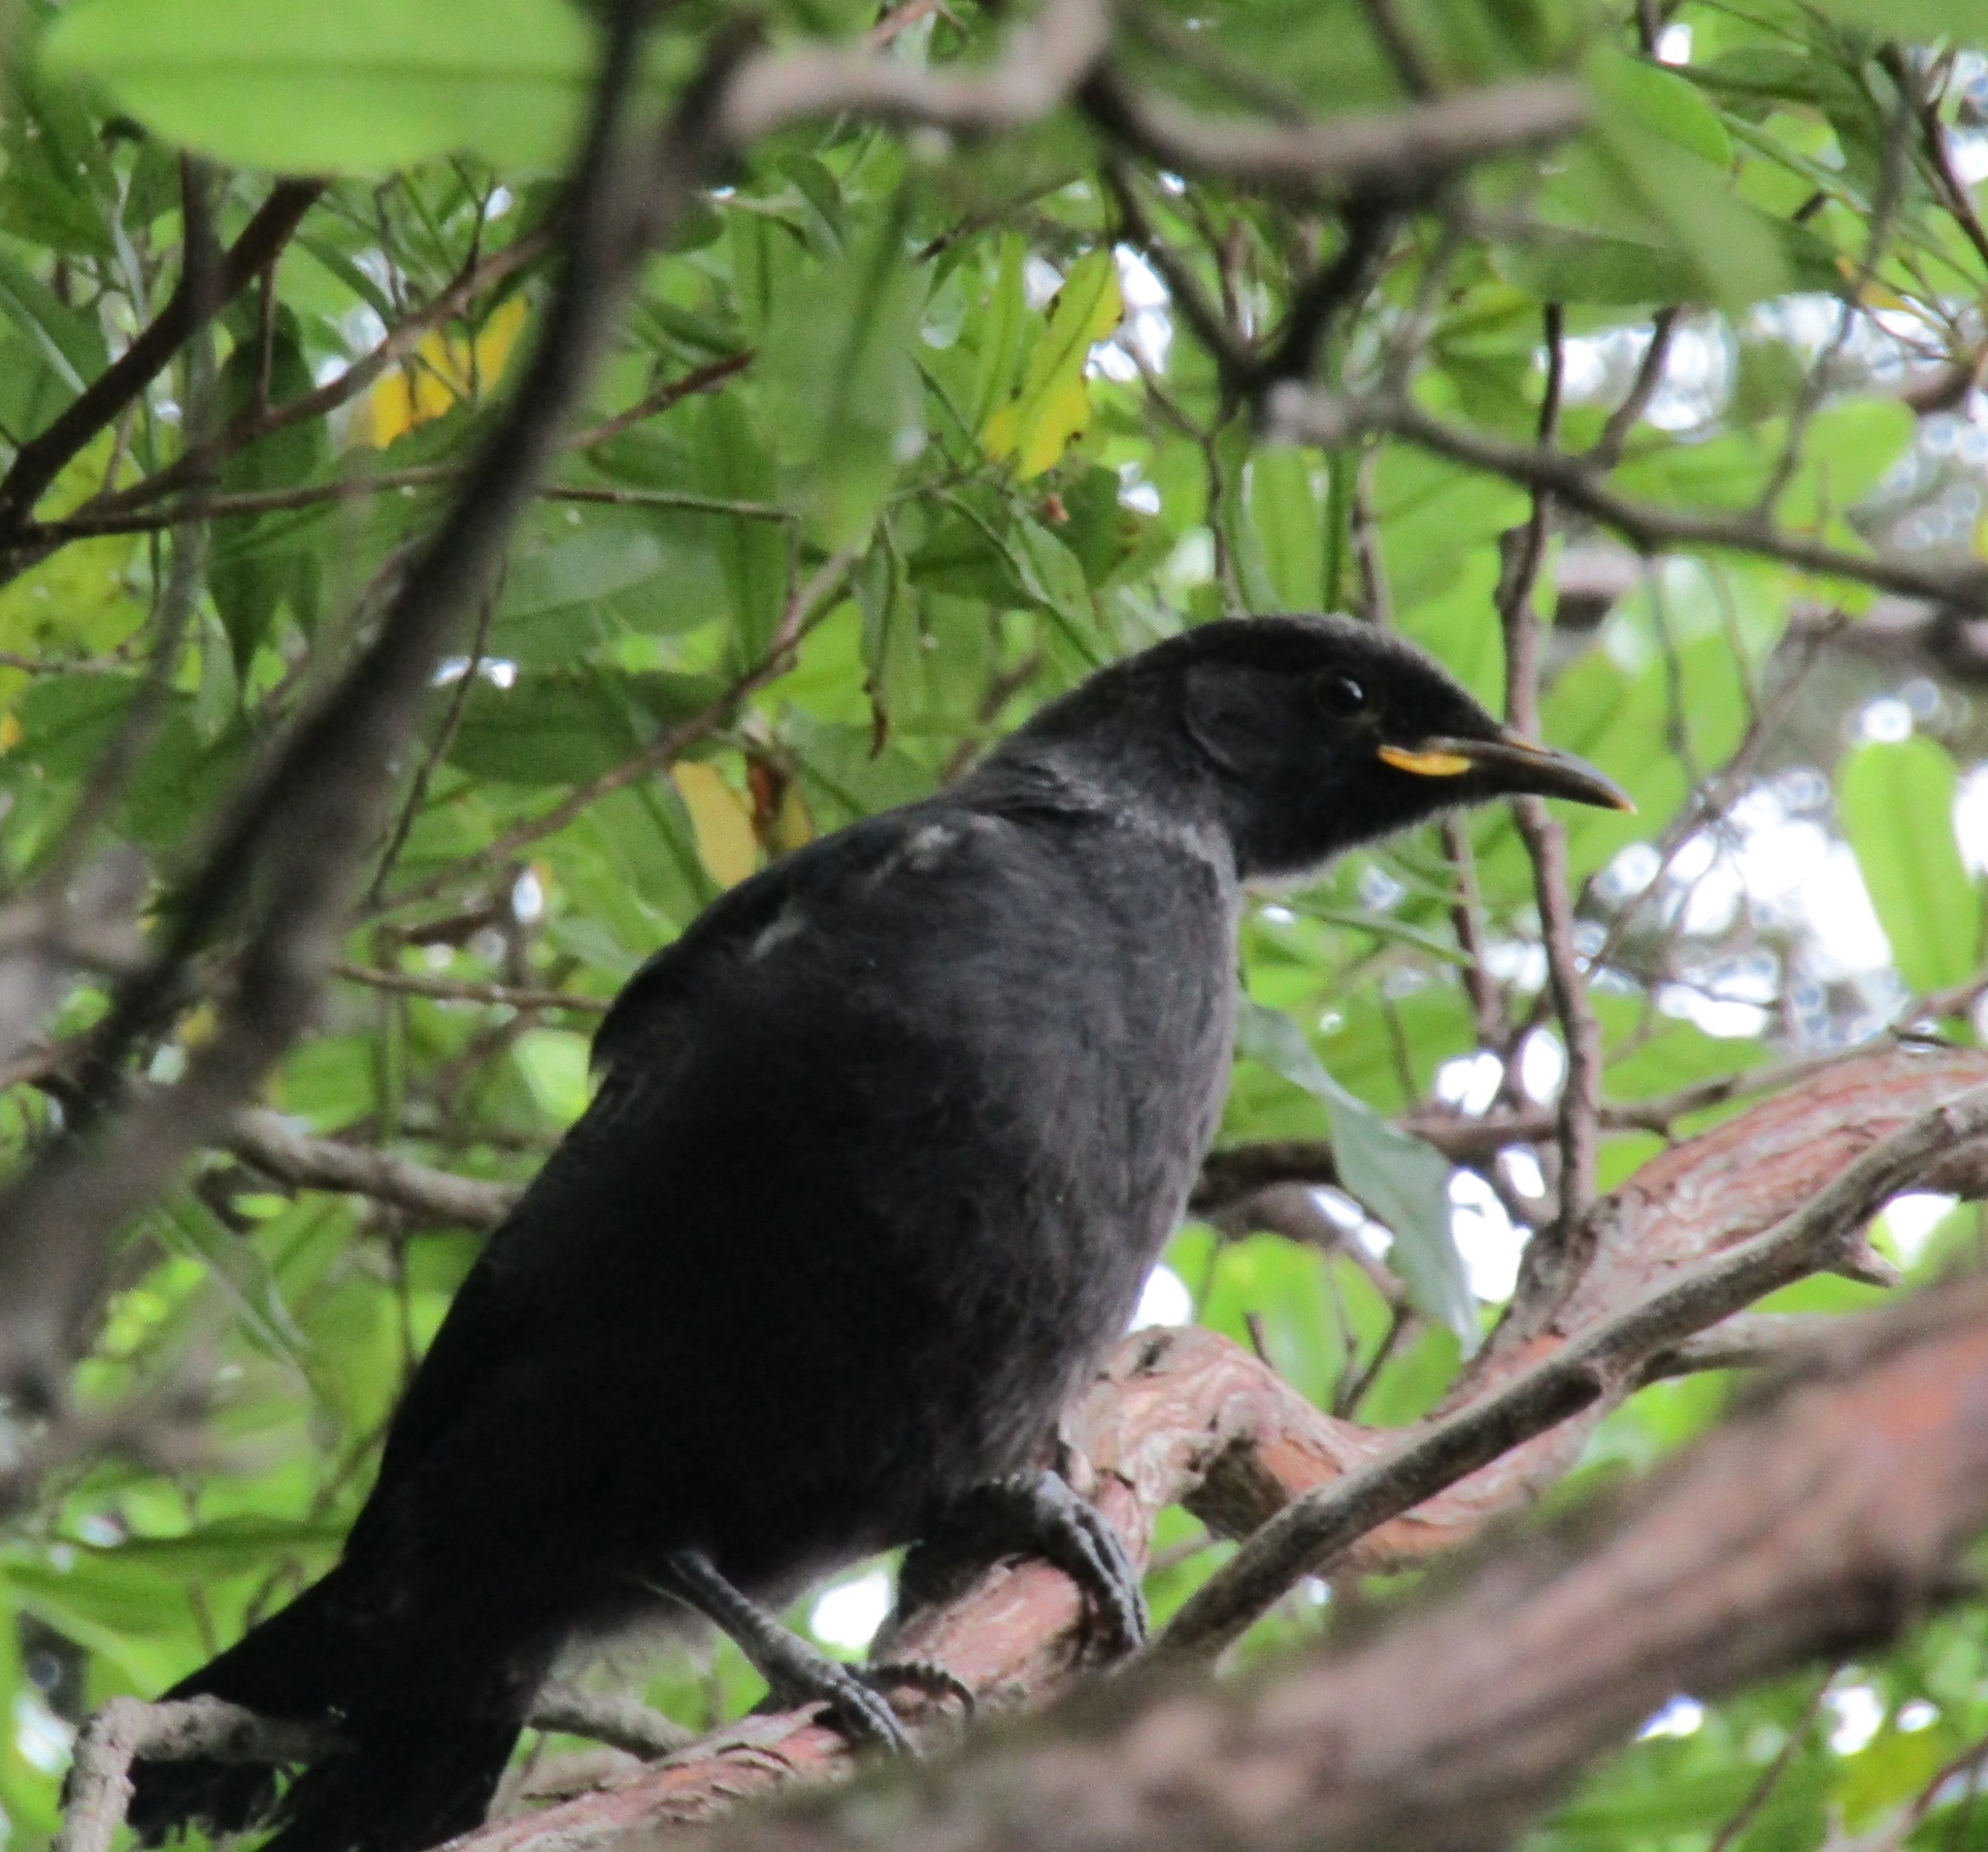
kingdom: Animalia
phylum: Chordata
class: Aves
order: Passeriformes
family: Meliphagidae
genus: Prosthemadera
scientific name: Prosthemadera novaeseelandiae
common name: Tui
